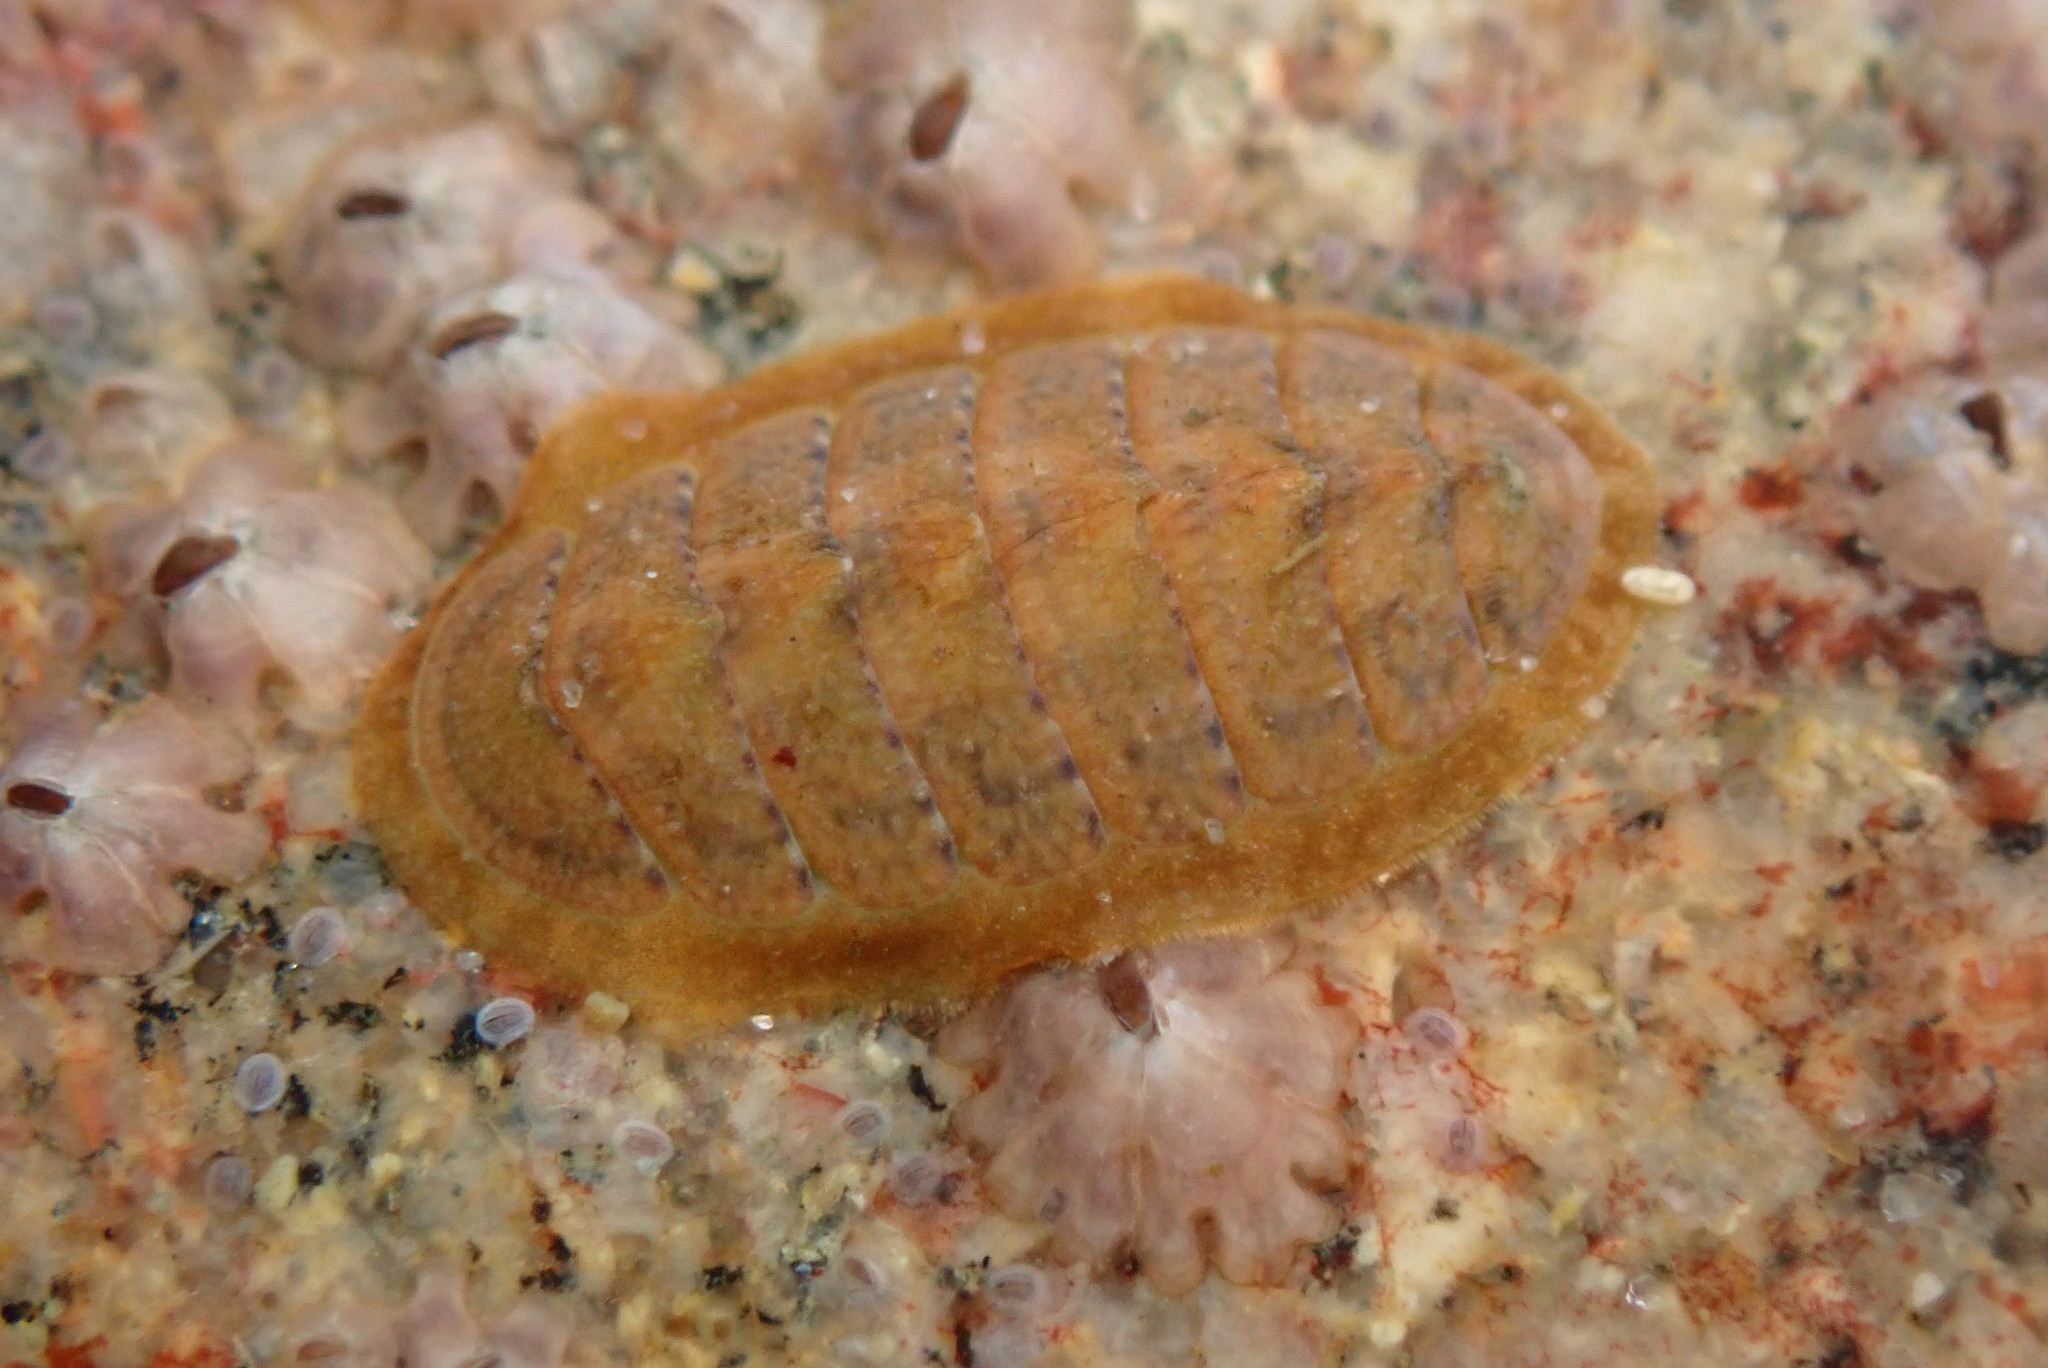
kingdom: Animalia
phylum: Mollusca
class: Polyplacophora
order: Chitonida
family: Tonicellidae
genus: Cyanoplax
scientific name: Cyanoplax keepiana
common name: Keep's chiton
